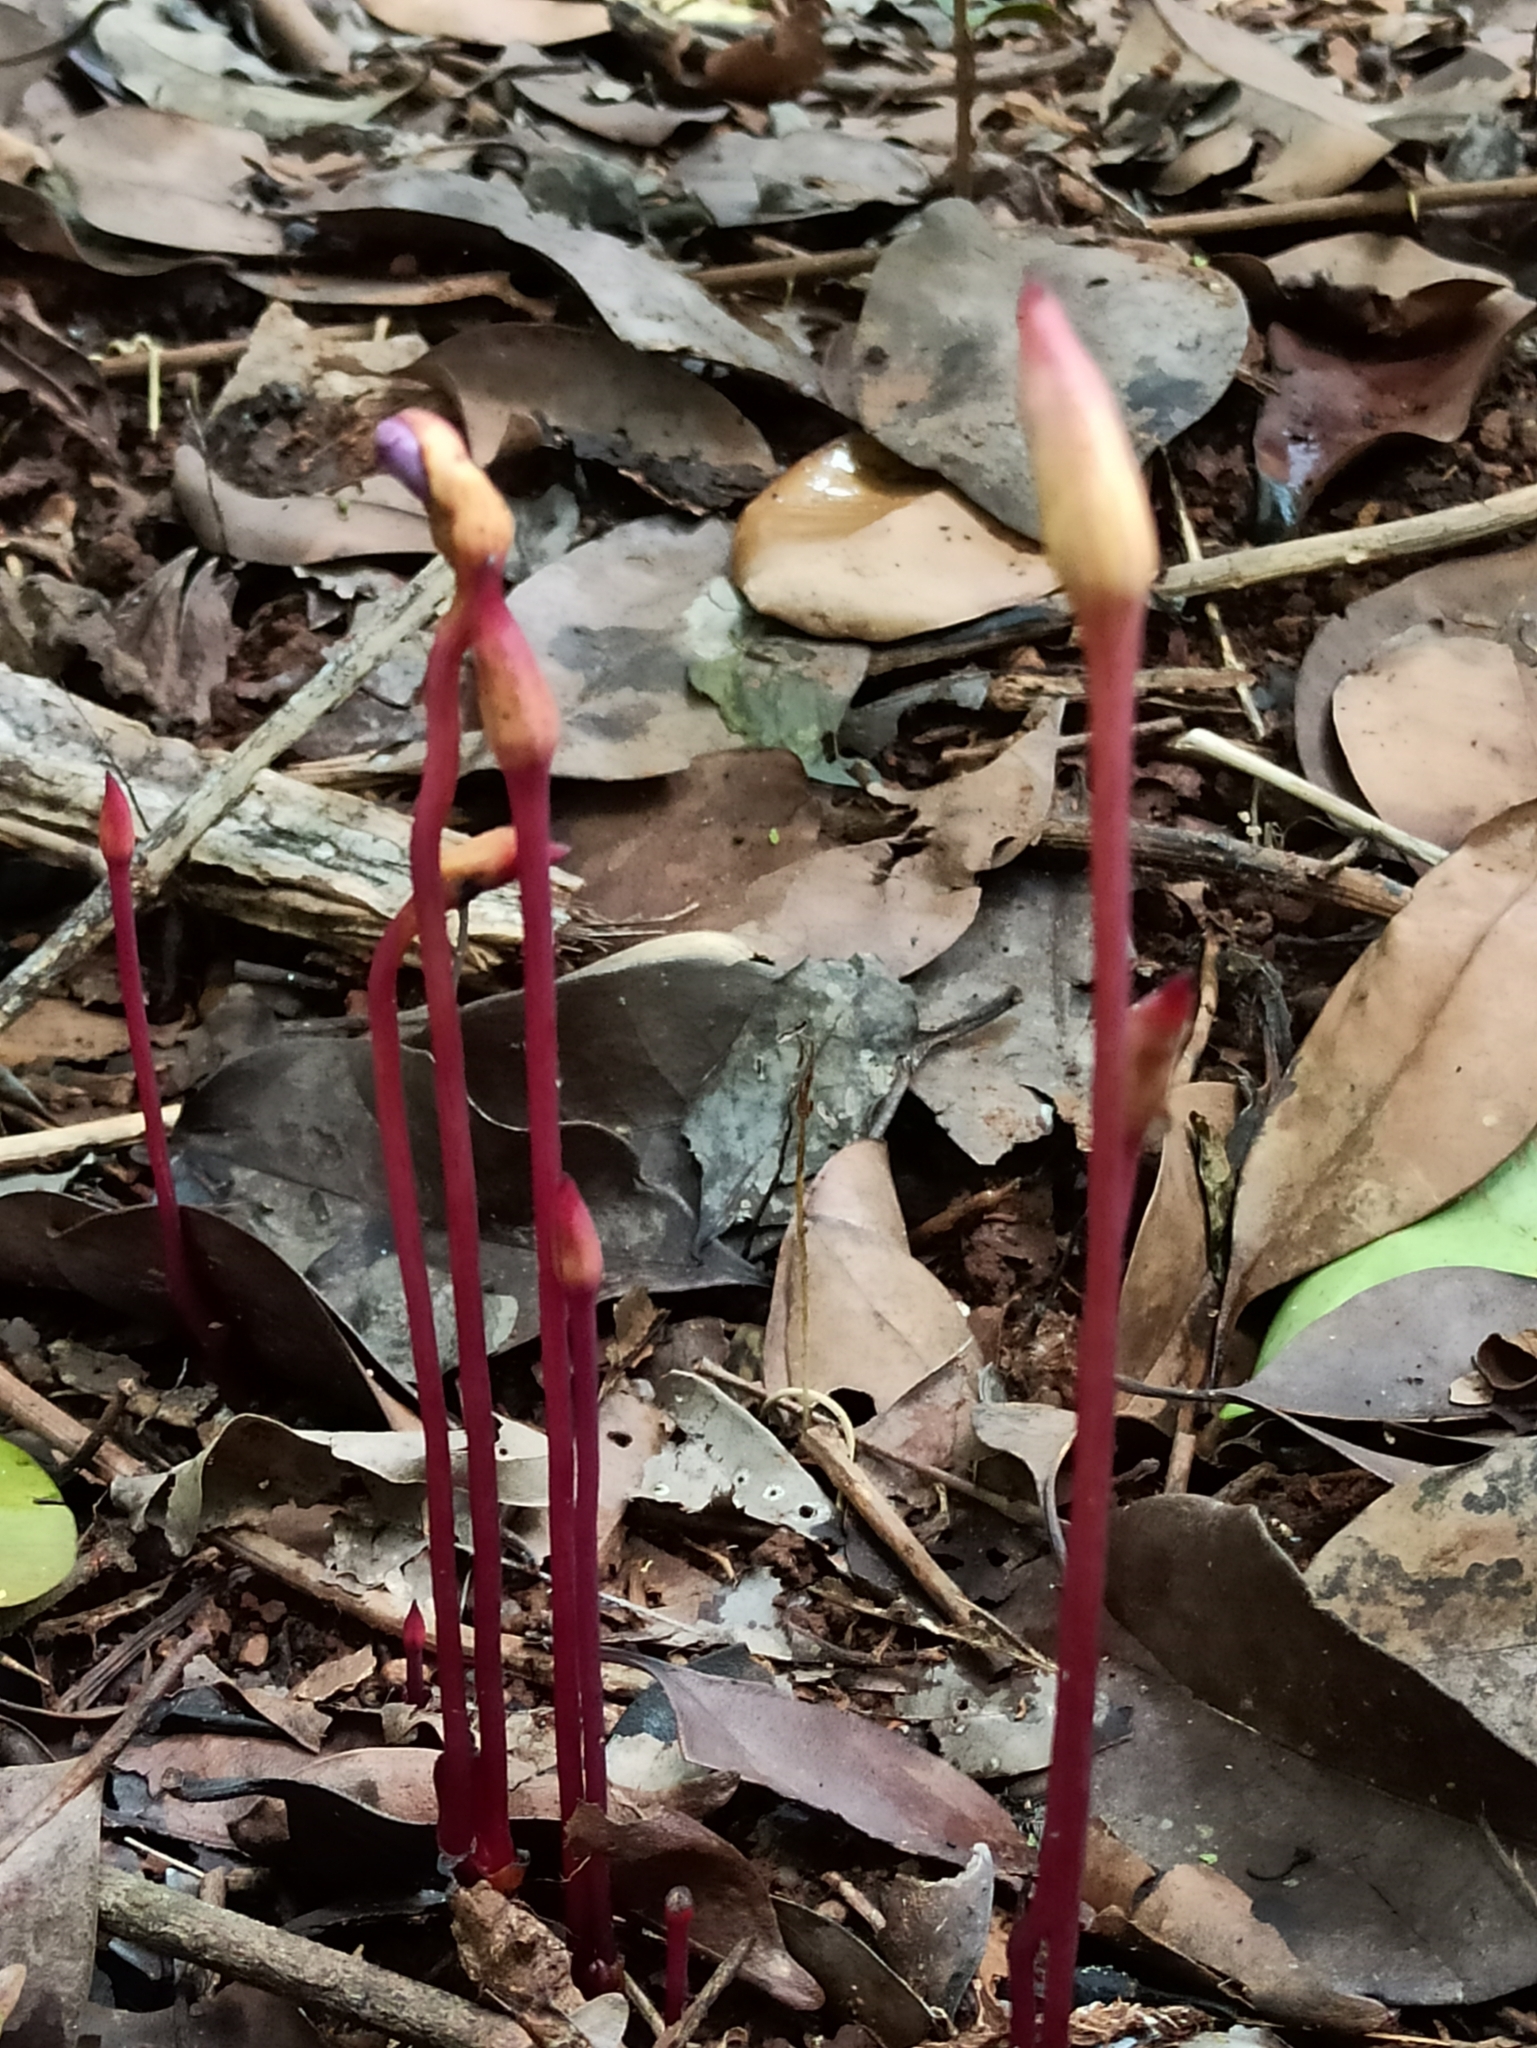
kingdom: Plantae
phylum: Tracheophyta
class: Magnoliopsida
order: Lamiales
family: Orobanchaceae
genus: Aeginetia
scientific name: Aeginetia indica
